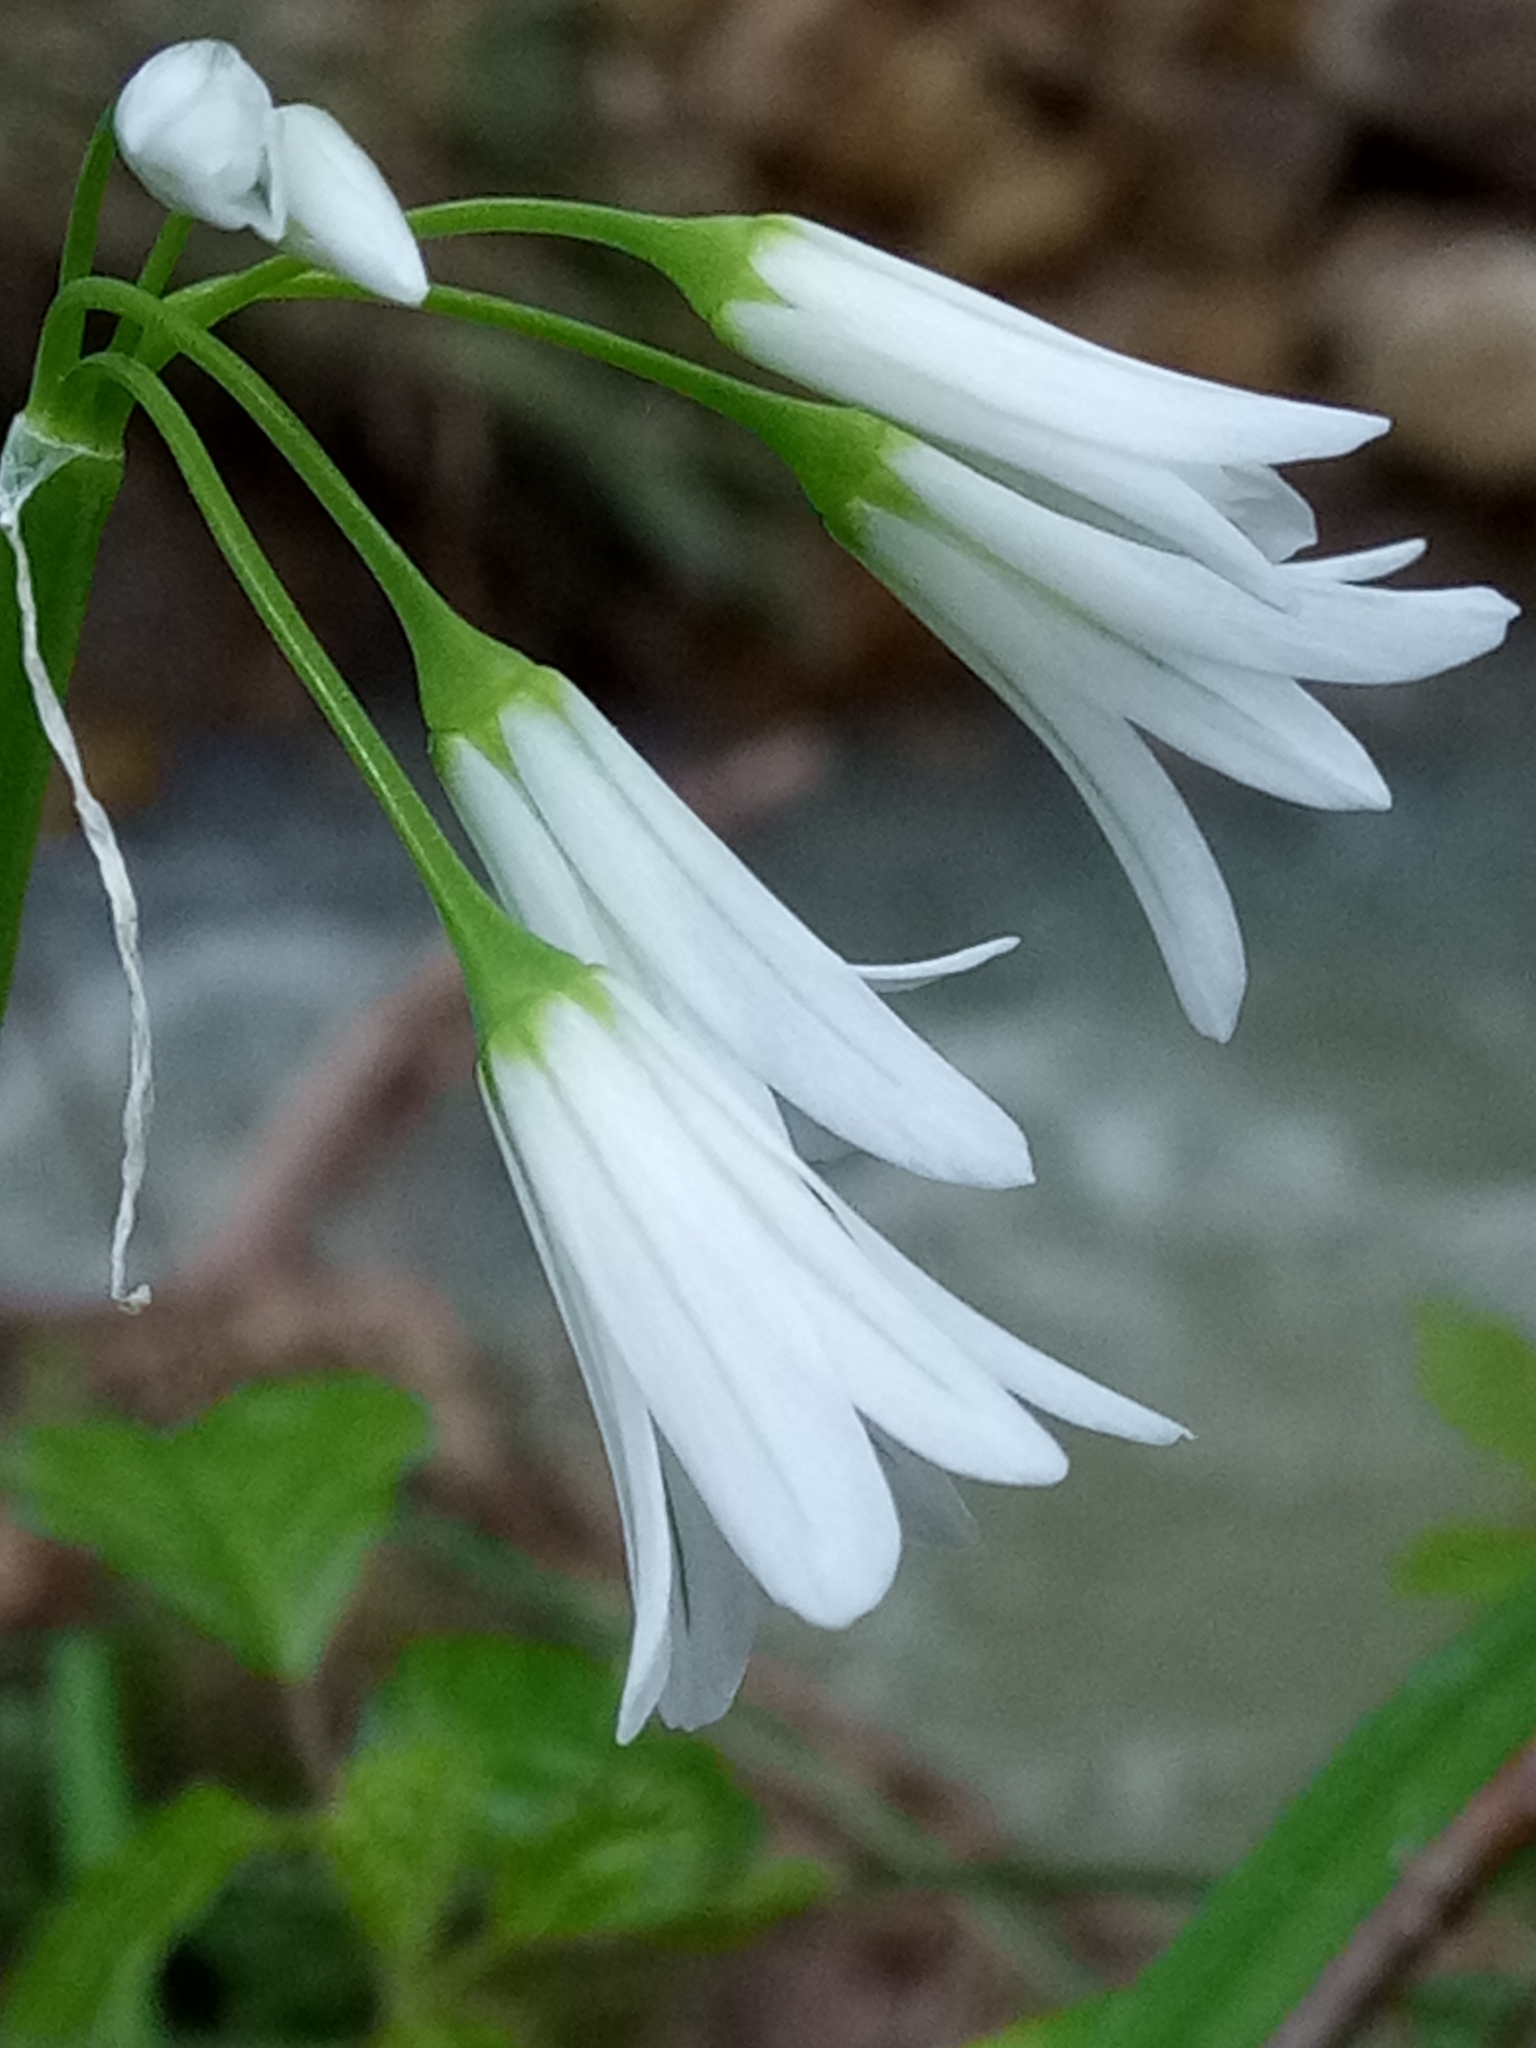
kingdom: Plantae
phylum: Tracheophyta
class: Liliopsida
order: Asparagales
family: Amaryllidaceae
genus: Allium
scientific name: Allium triquetrum
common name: Three-cornered garlic
